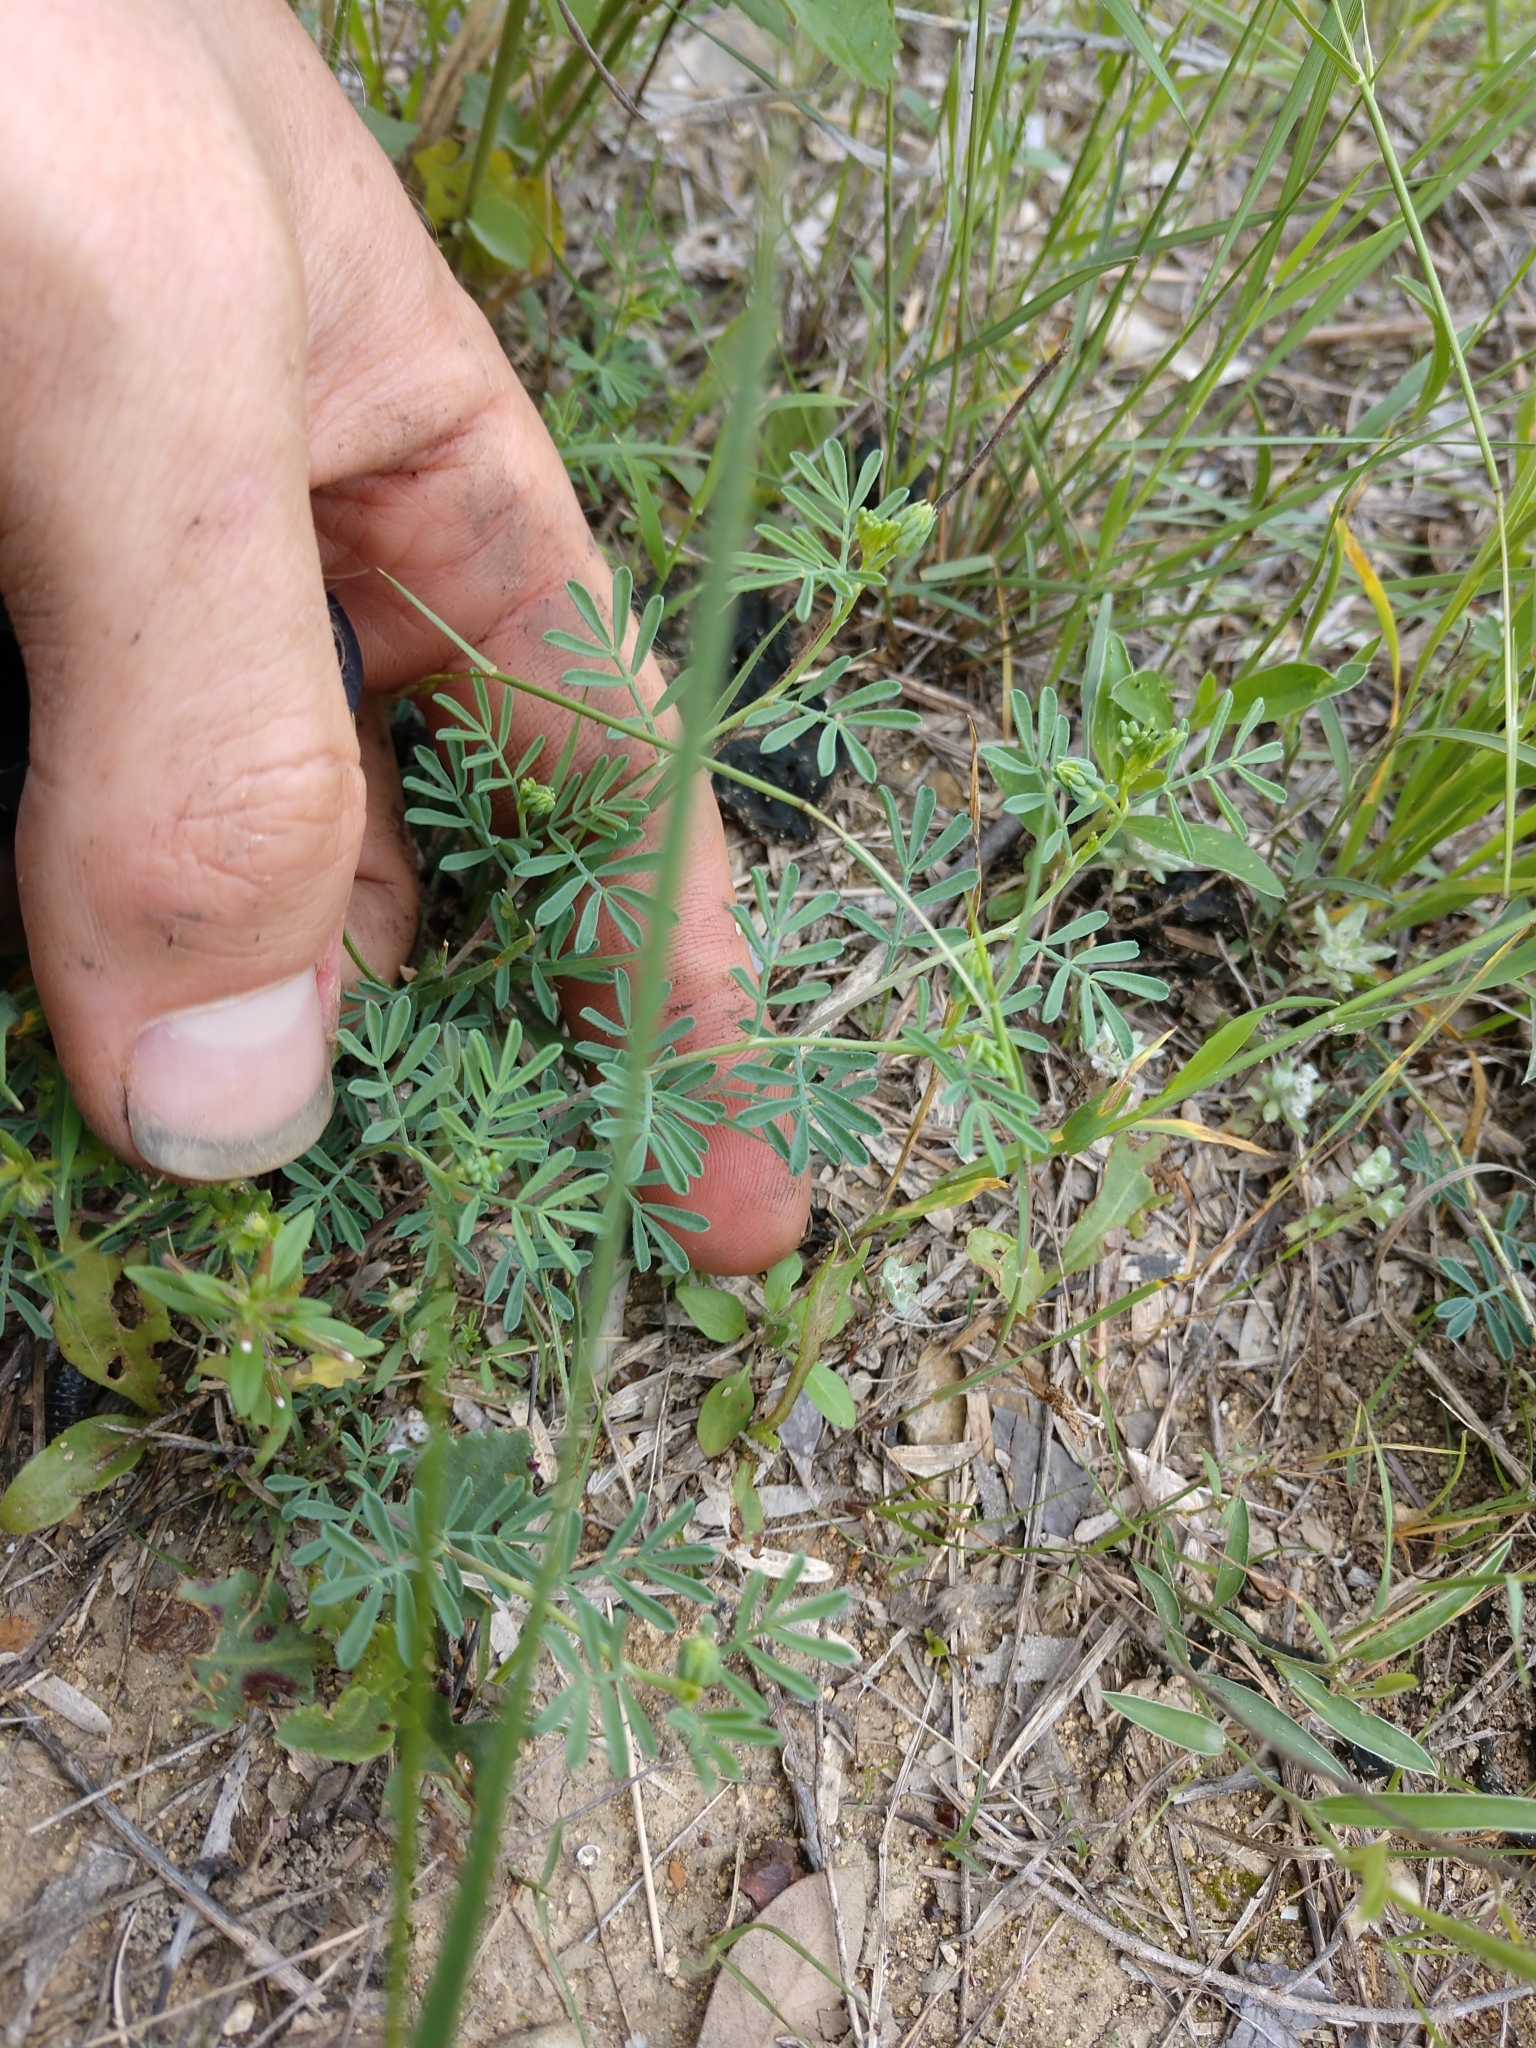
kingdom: Plantae
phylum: Tracheophyta
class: Magnoliopsida
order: Fabales
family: Fabaceae
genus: Dalea
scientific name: Dalea pogonathera
